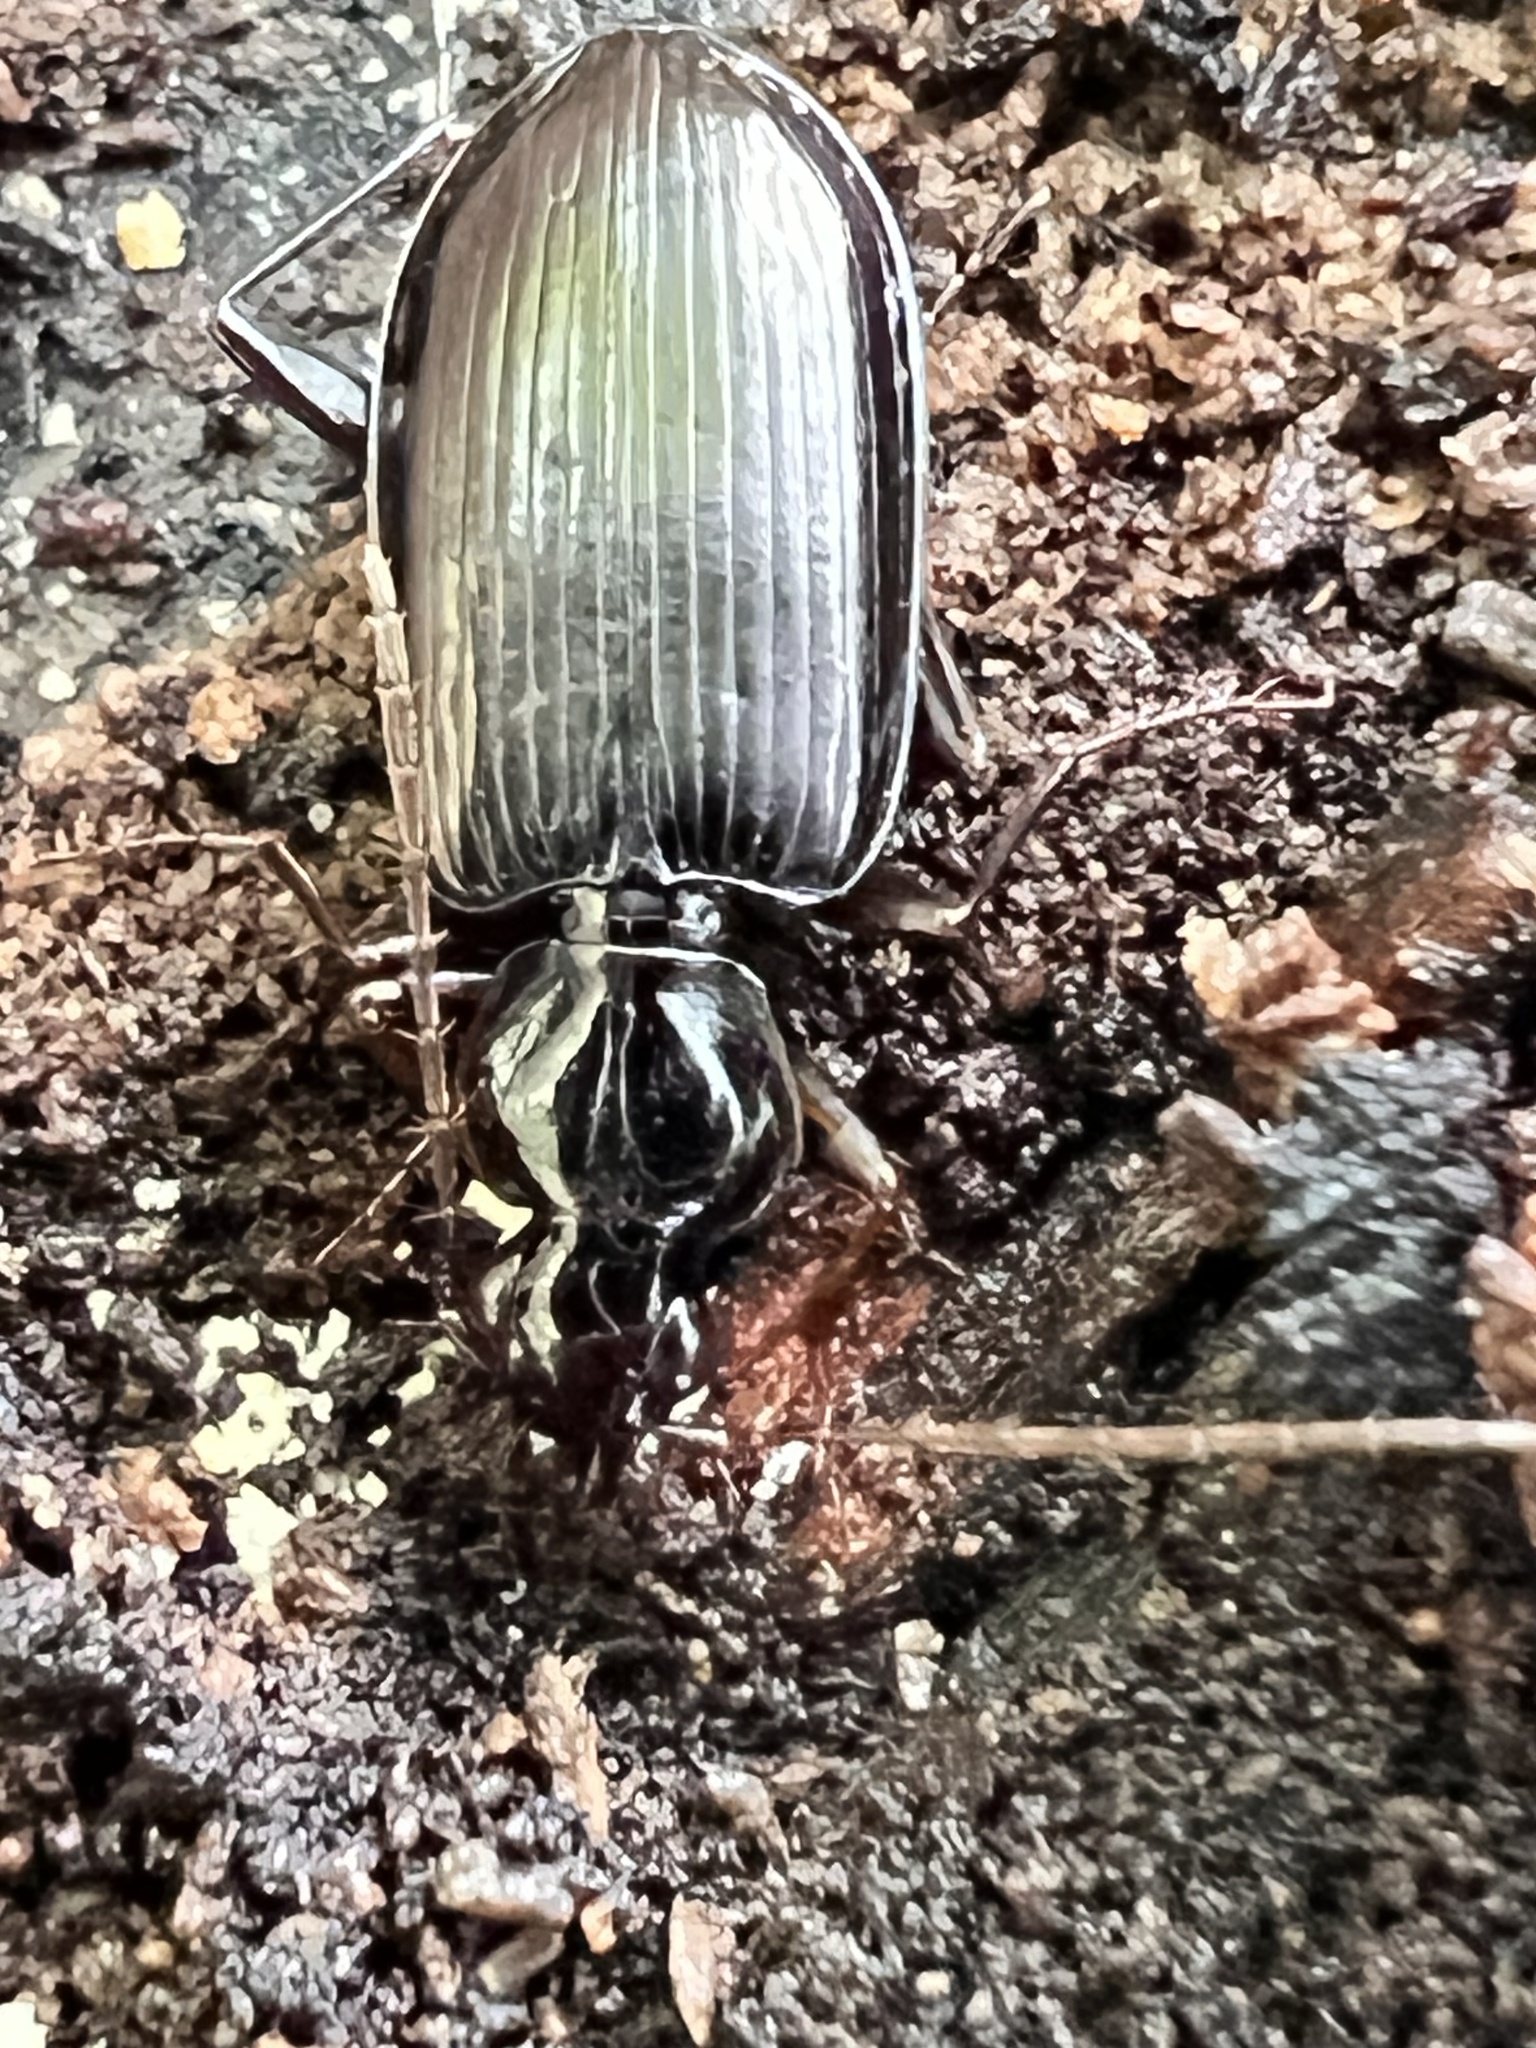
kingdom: Animalia
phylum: Arthropoda
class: Insecta
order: Coleoptera
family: Carabidae
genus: Platynus
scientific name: Platynus decentis
